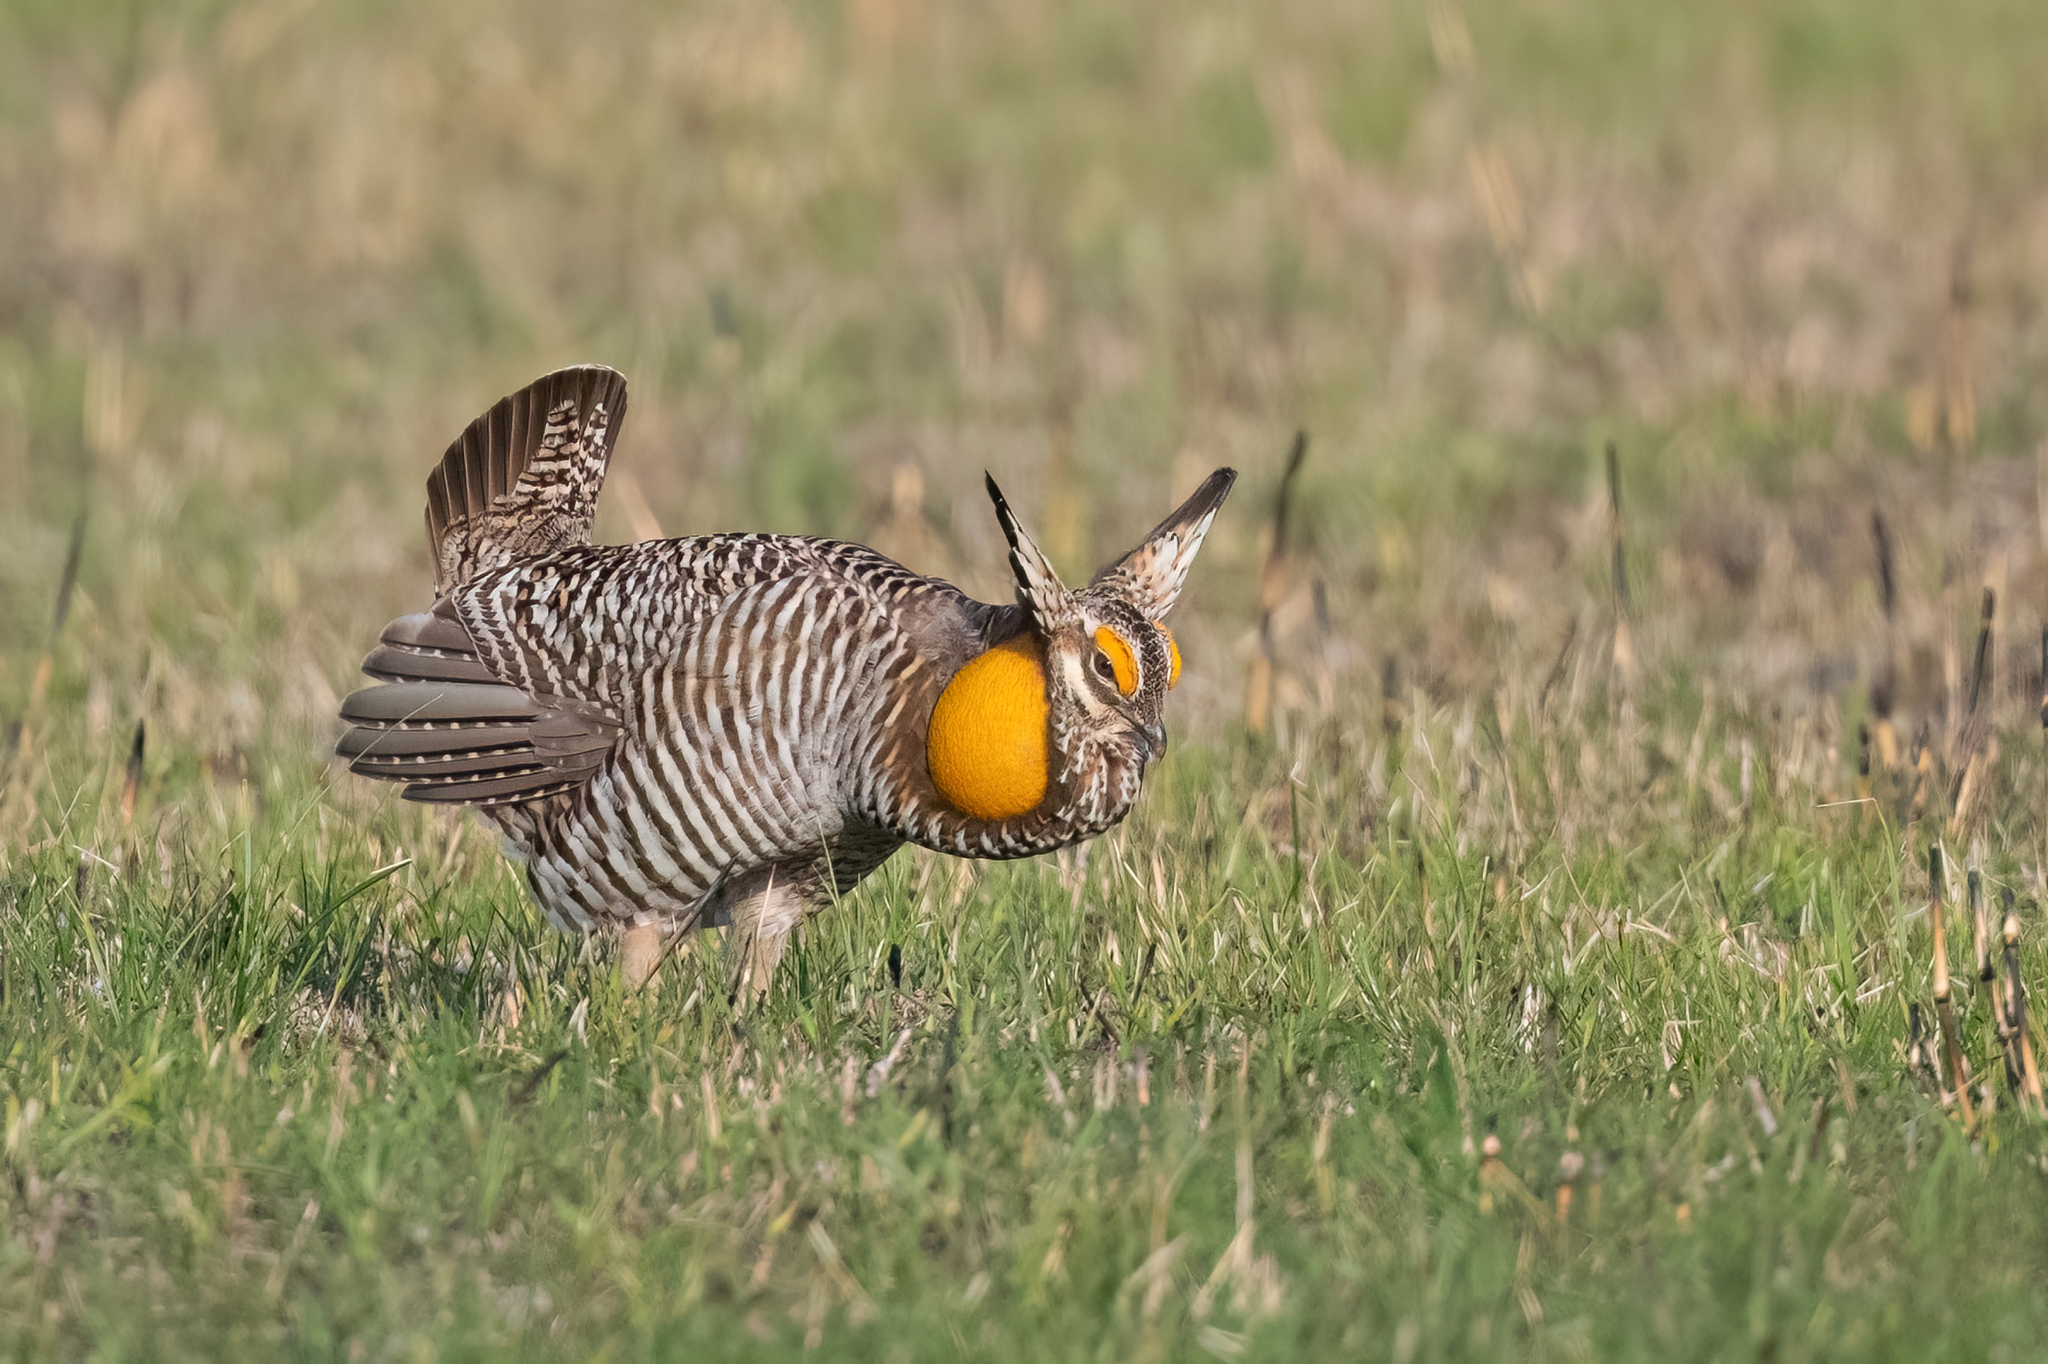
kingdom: Animalia
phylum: Chordata
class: Aves
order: Galliformes
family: Phasianidae
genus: Tympanuchus
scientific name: Tympanuchus cupido
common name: Greater prairie chicken
